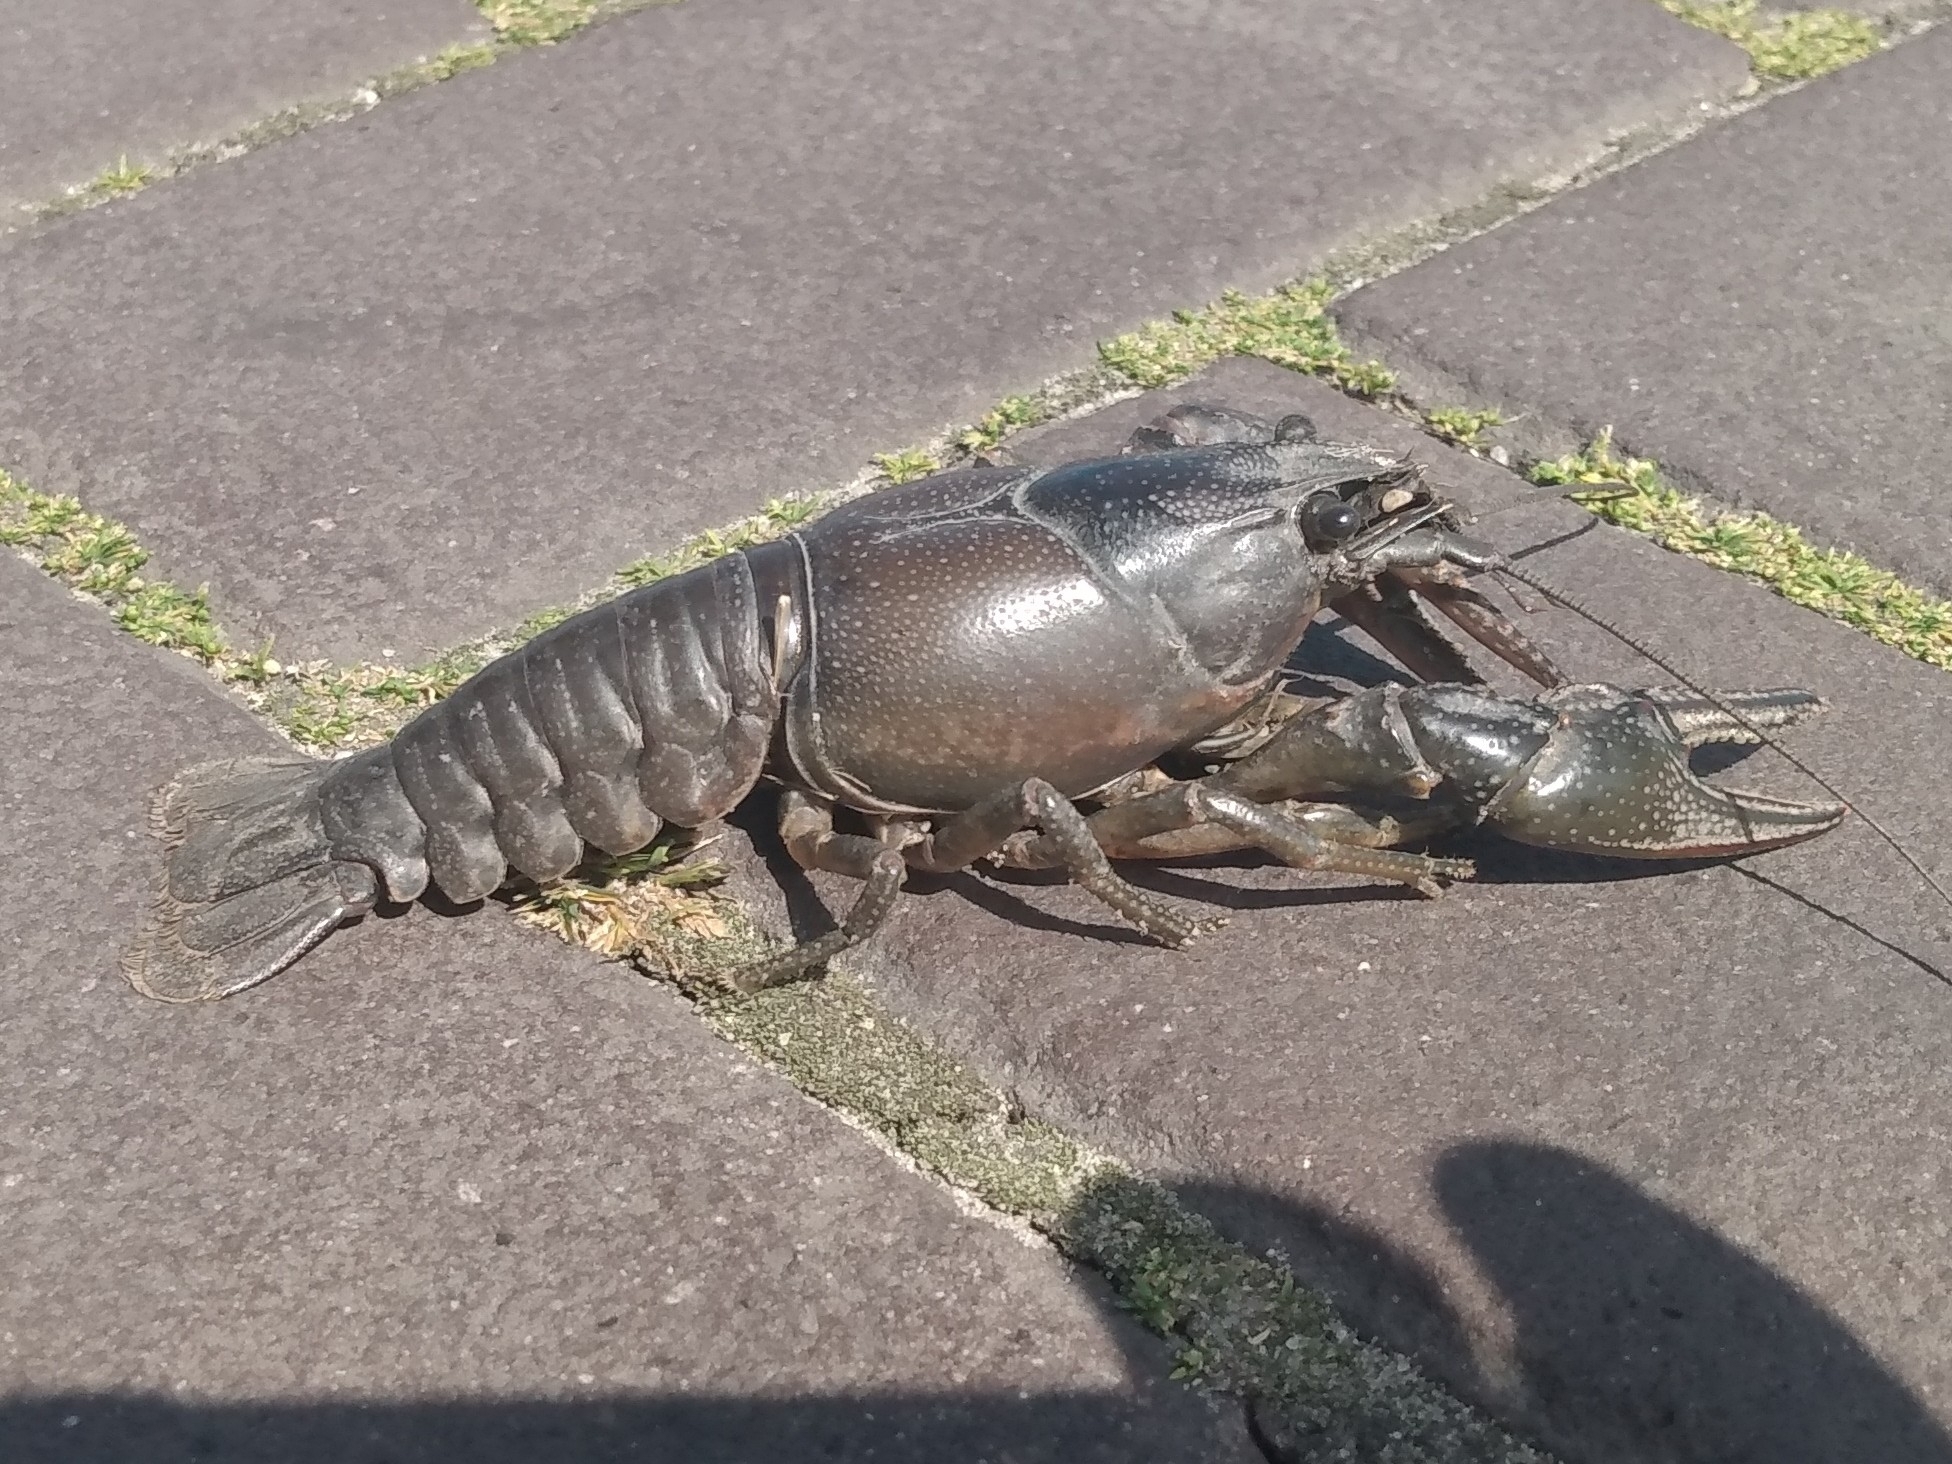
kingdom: Animalia
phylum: Arthropoda
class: Malacostraca
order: Decapoda
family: Cambaridae
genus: Faxonius
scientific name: Faxonius virilis
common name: Virile crayfish
